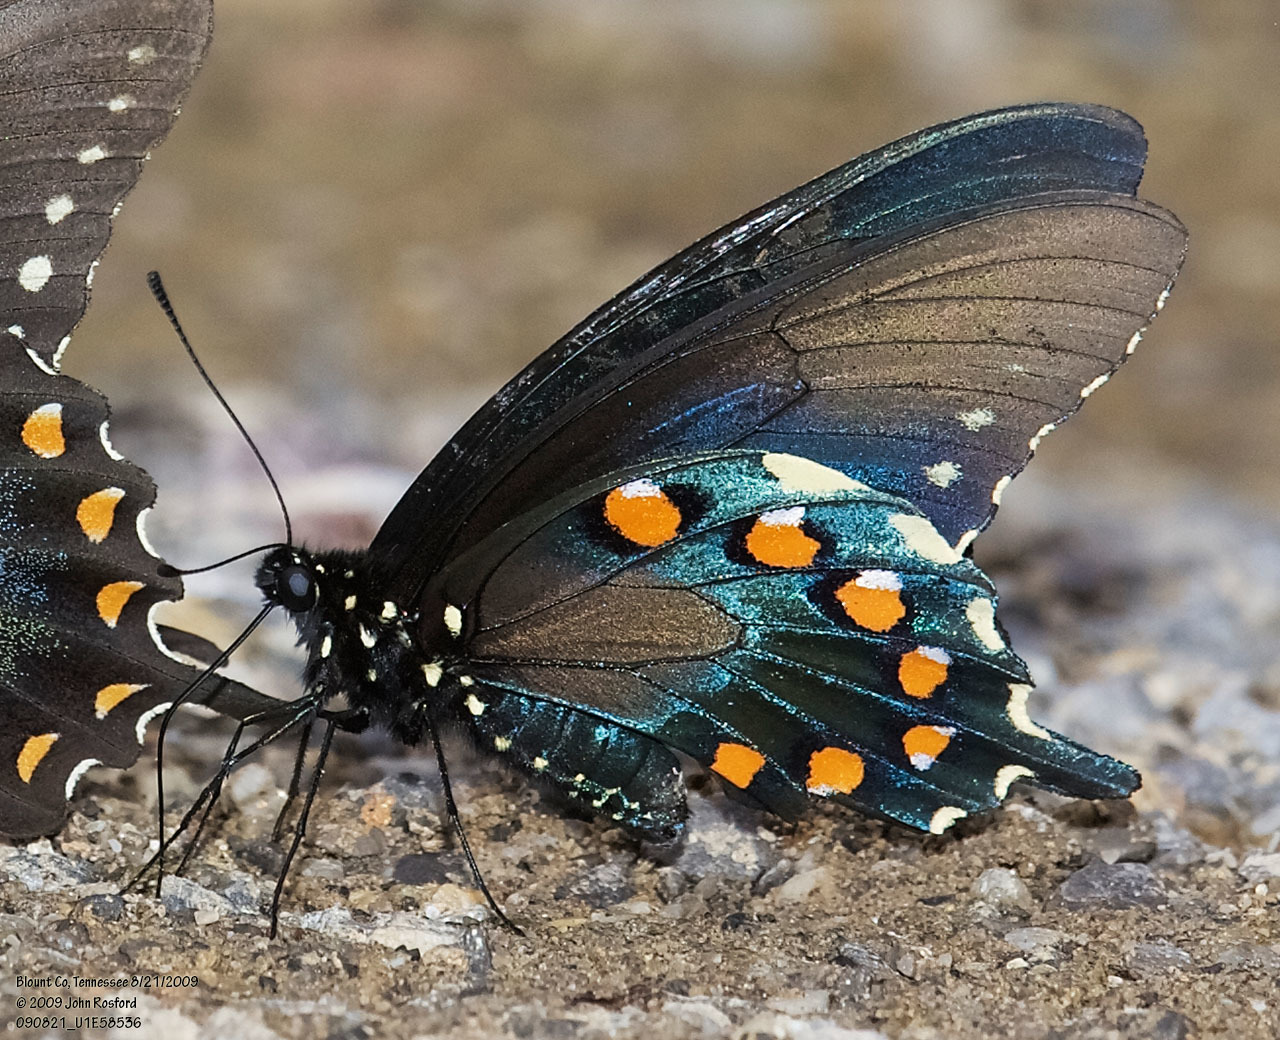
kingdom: Animalia
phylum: Arthropoda
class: Insecta
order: Lepidoptera
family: Papilionidae
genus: Battus
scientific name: Battus philenor
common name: Pipevine swallowtail
